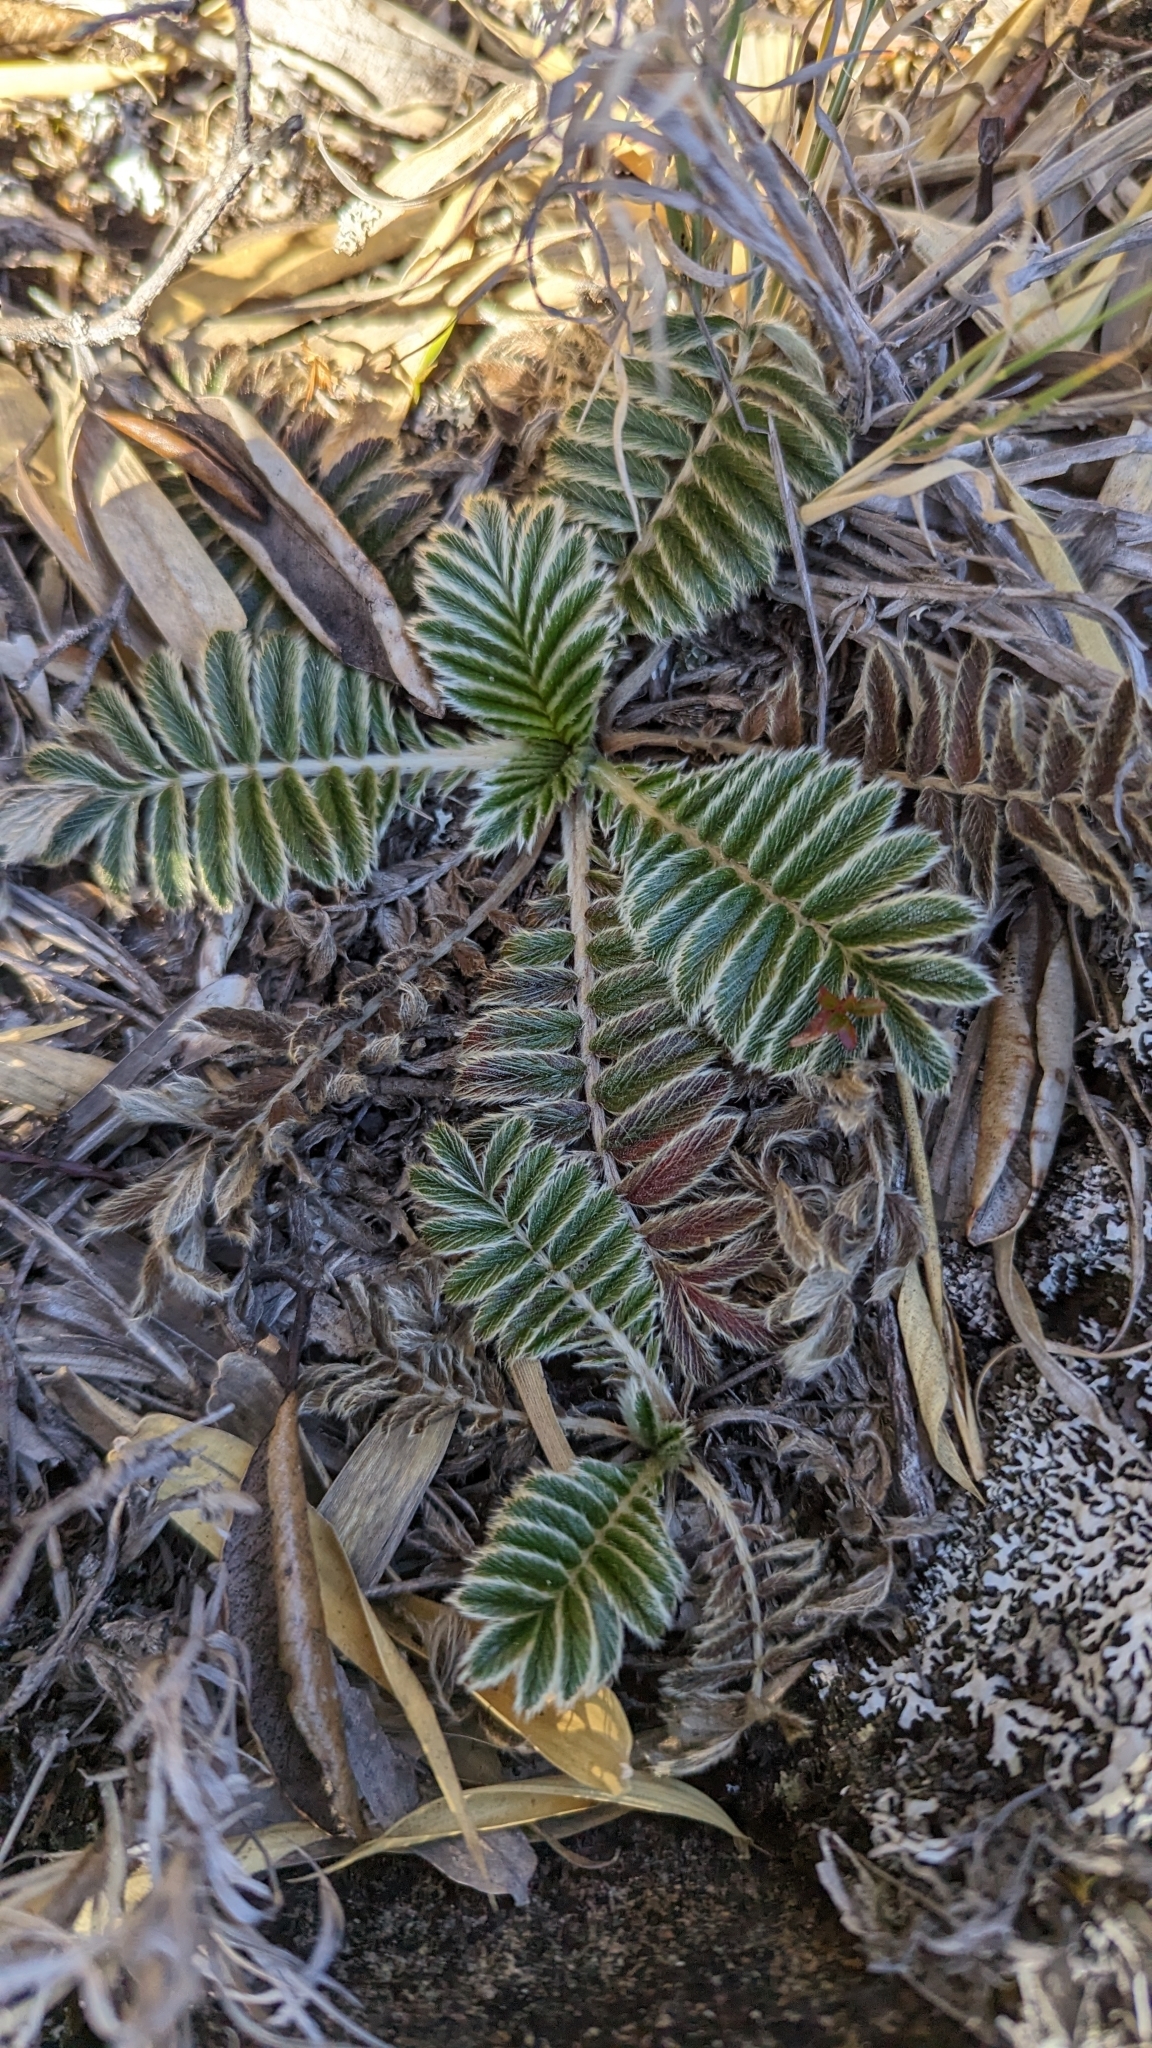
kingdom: Plantae
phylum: Tracheophyta
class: Magnoliopsida
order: Rosales
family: Rosaceae
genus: Acaena
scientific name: Acaena cylindristachya
